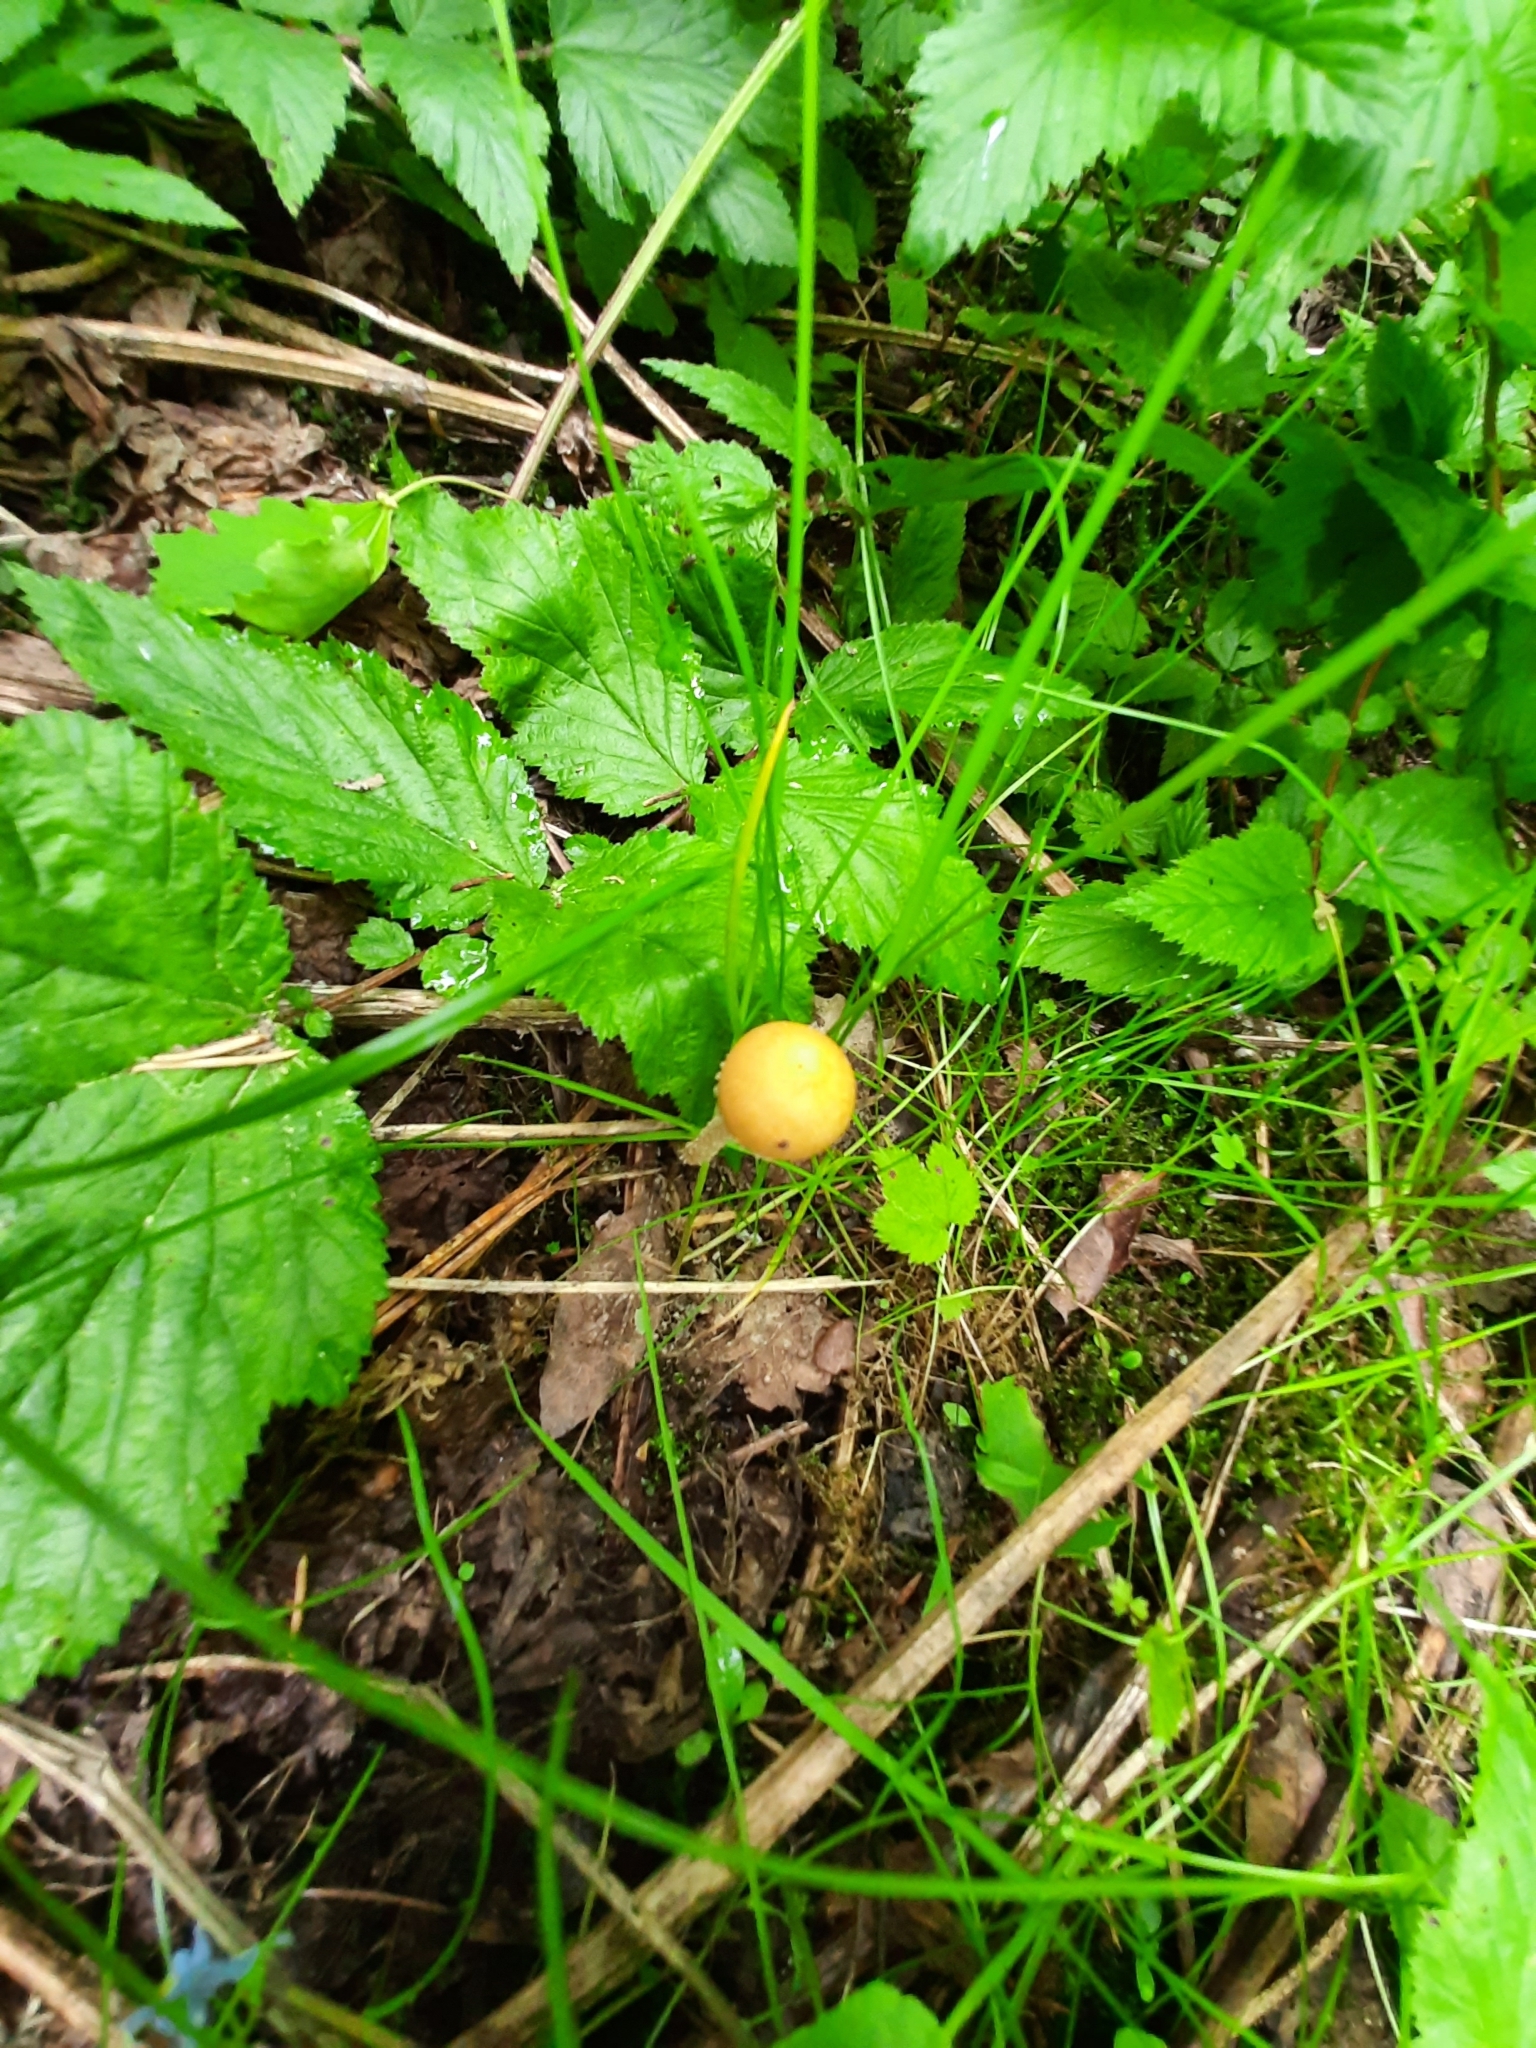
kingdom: Fungi
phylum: Basidiomycota
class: Agaricomycetes
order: Agaricales
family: Strophariaceae
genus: Leratiomyces
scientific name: Leratiomyces magnivelaris
